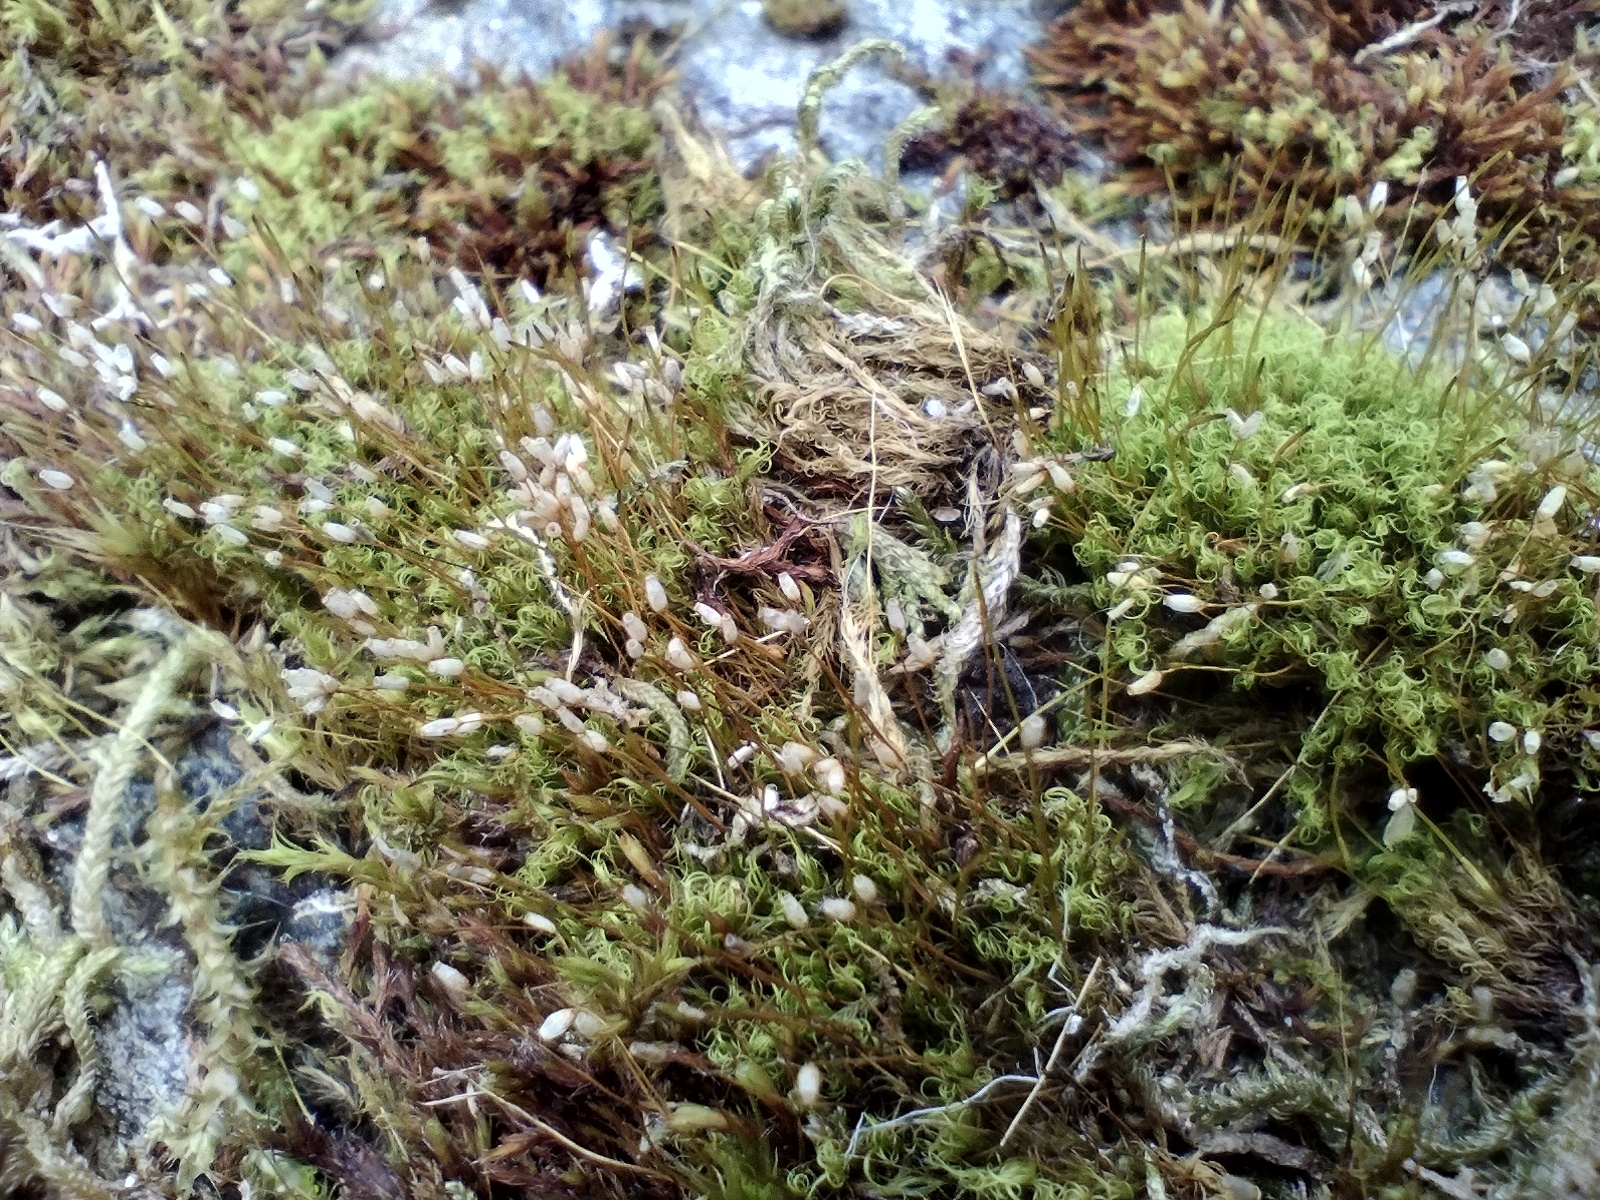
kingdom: Plantae
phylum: Bryophyta
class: Bryopsida
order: Scouleriales
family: Hymenolomataceae
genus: Hymenoloma
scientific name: Hymenoloma crispulum
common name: Mountain pincushion
